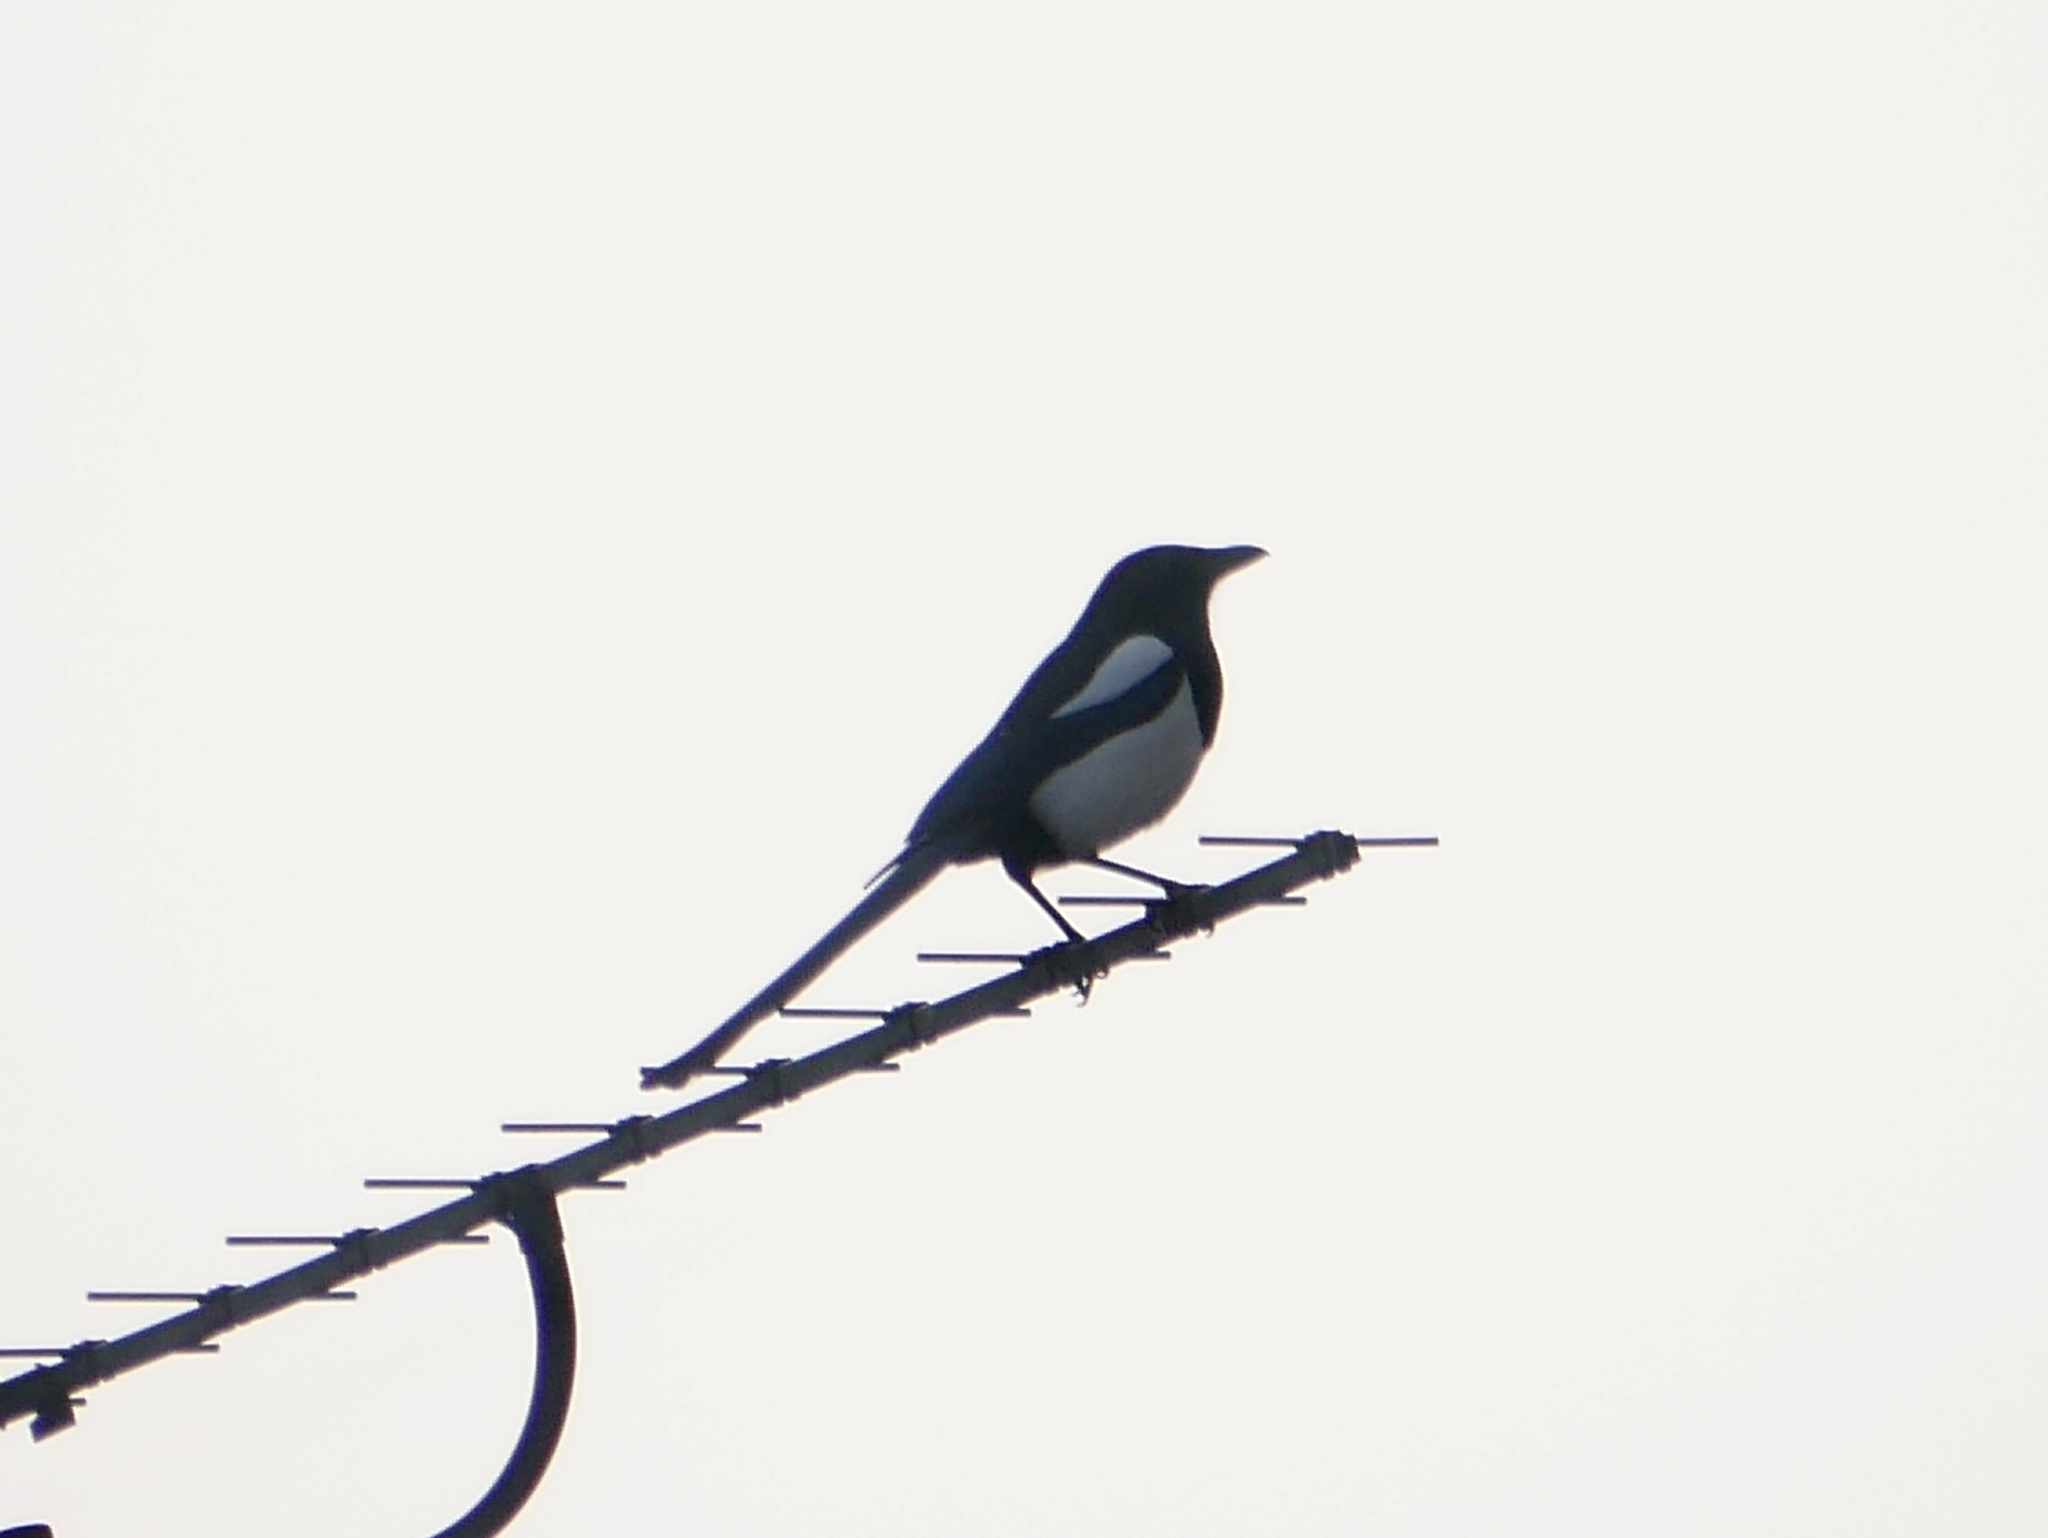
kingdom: Animalia
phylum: Chordata
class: Aves
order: Passeriformes
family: Corvidae
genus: Pica
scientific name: Pica pica
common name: Eurasian magpie
